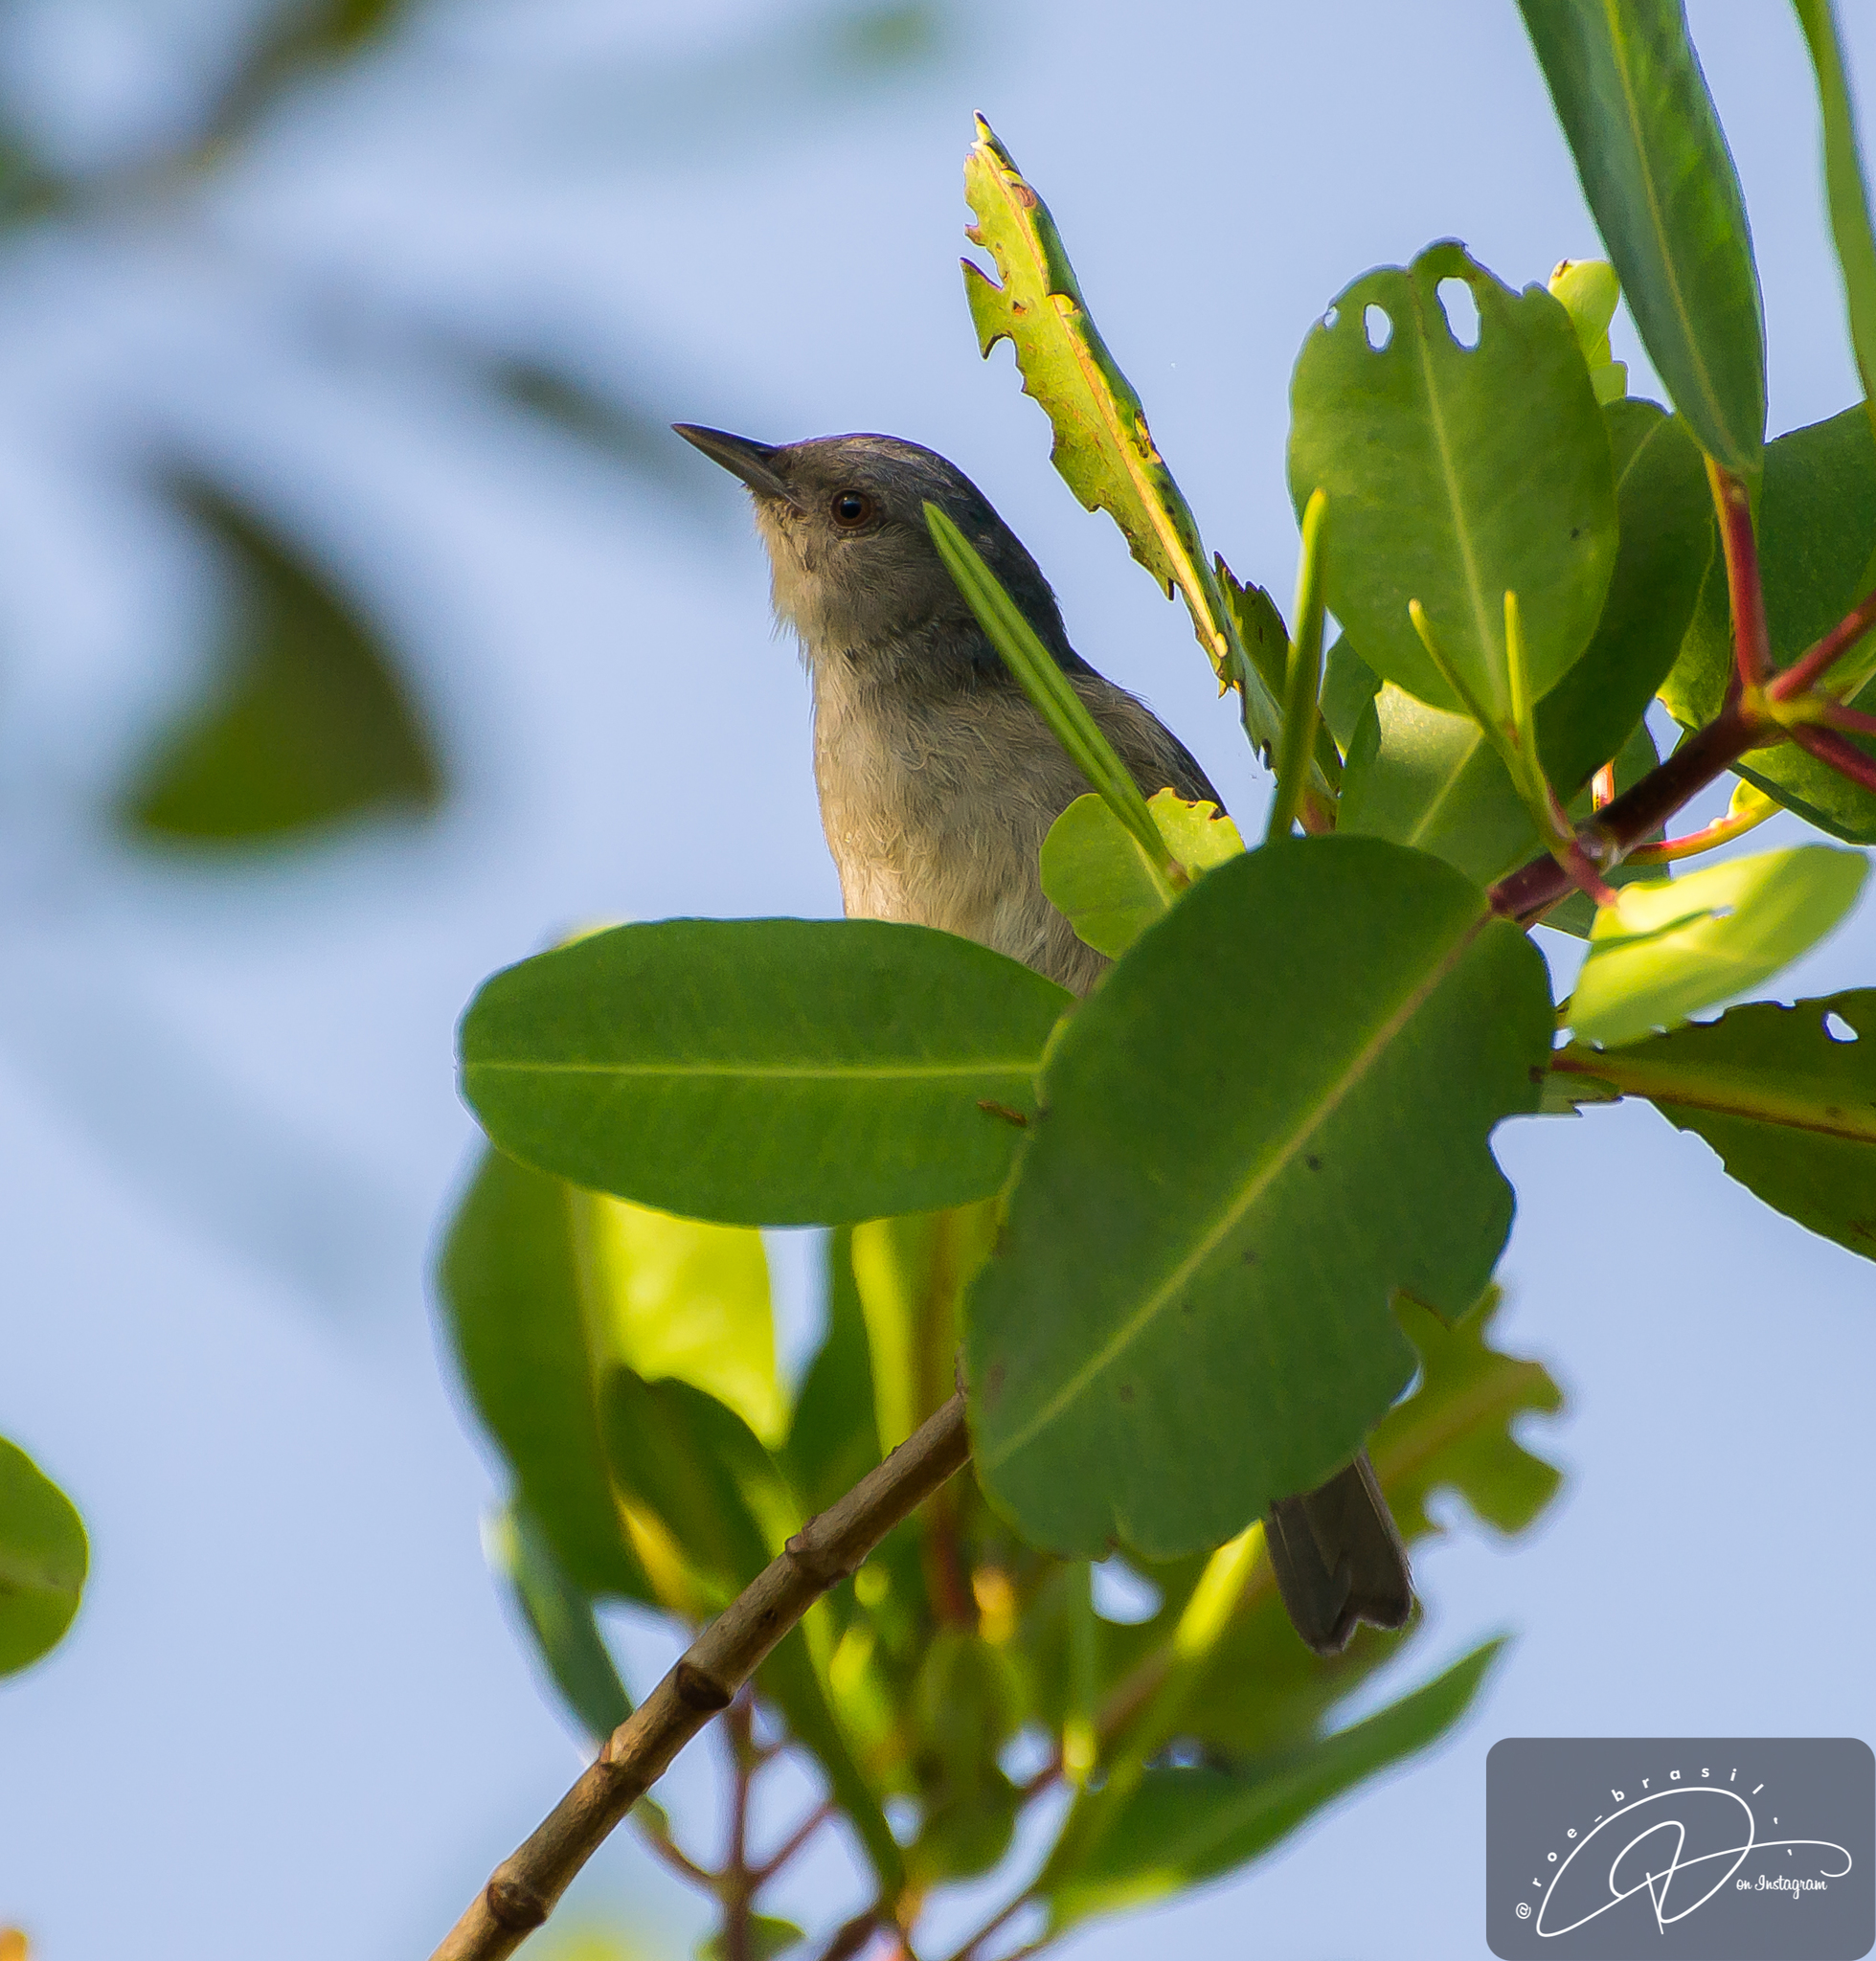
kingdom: Animalia
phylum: Chordata
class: Aves
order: Passeriformes
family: Thraupidae
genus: Conirostrum
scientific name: Conirostrum bicolor
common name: Bicolored conebill
